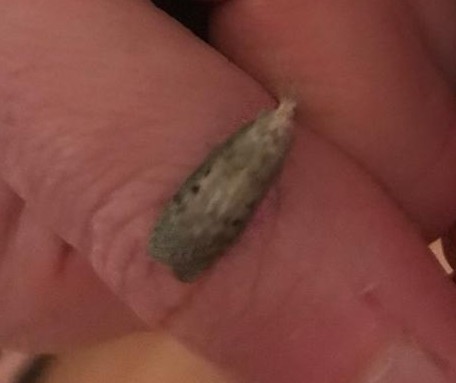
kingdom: Animalia
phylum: Arthropoda
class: Insecta
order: Lepidoptera
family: Pyralidae
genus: Aphomia
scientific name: Aphomia sociella
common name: Bee moth
